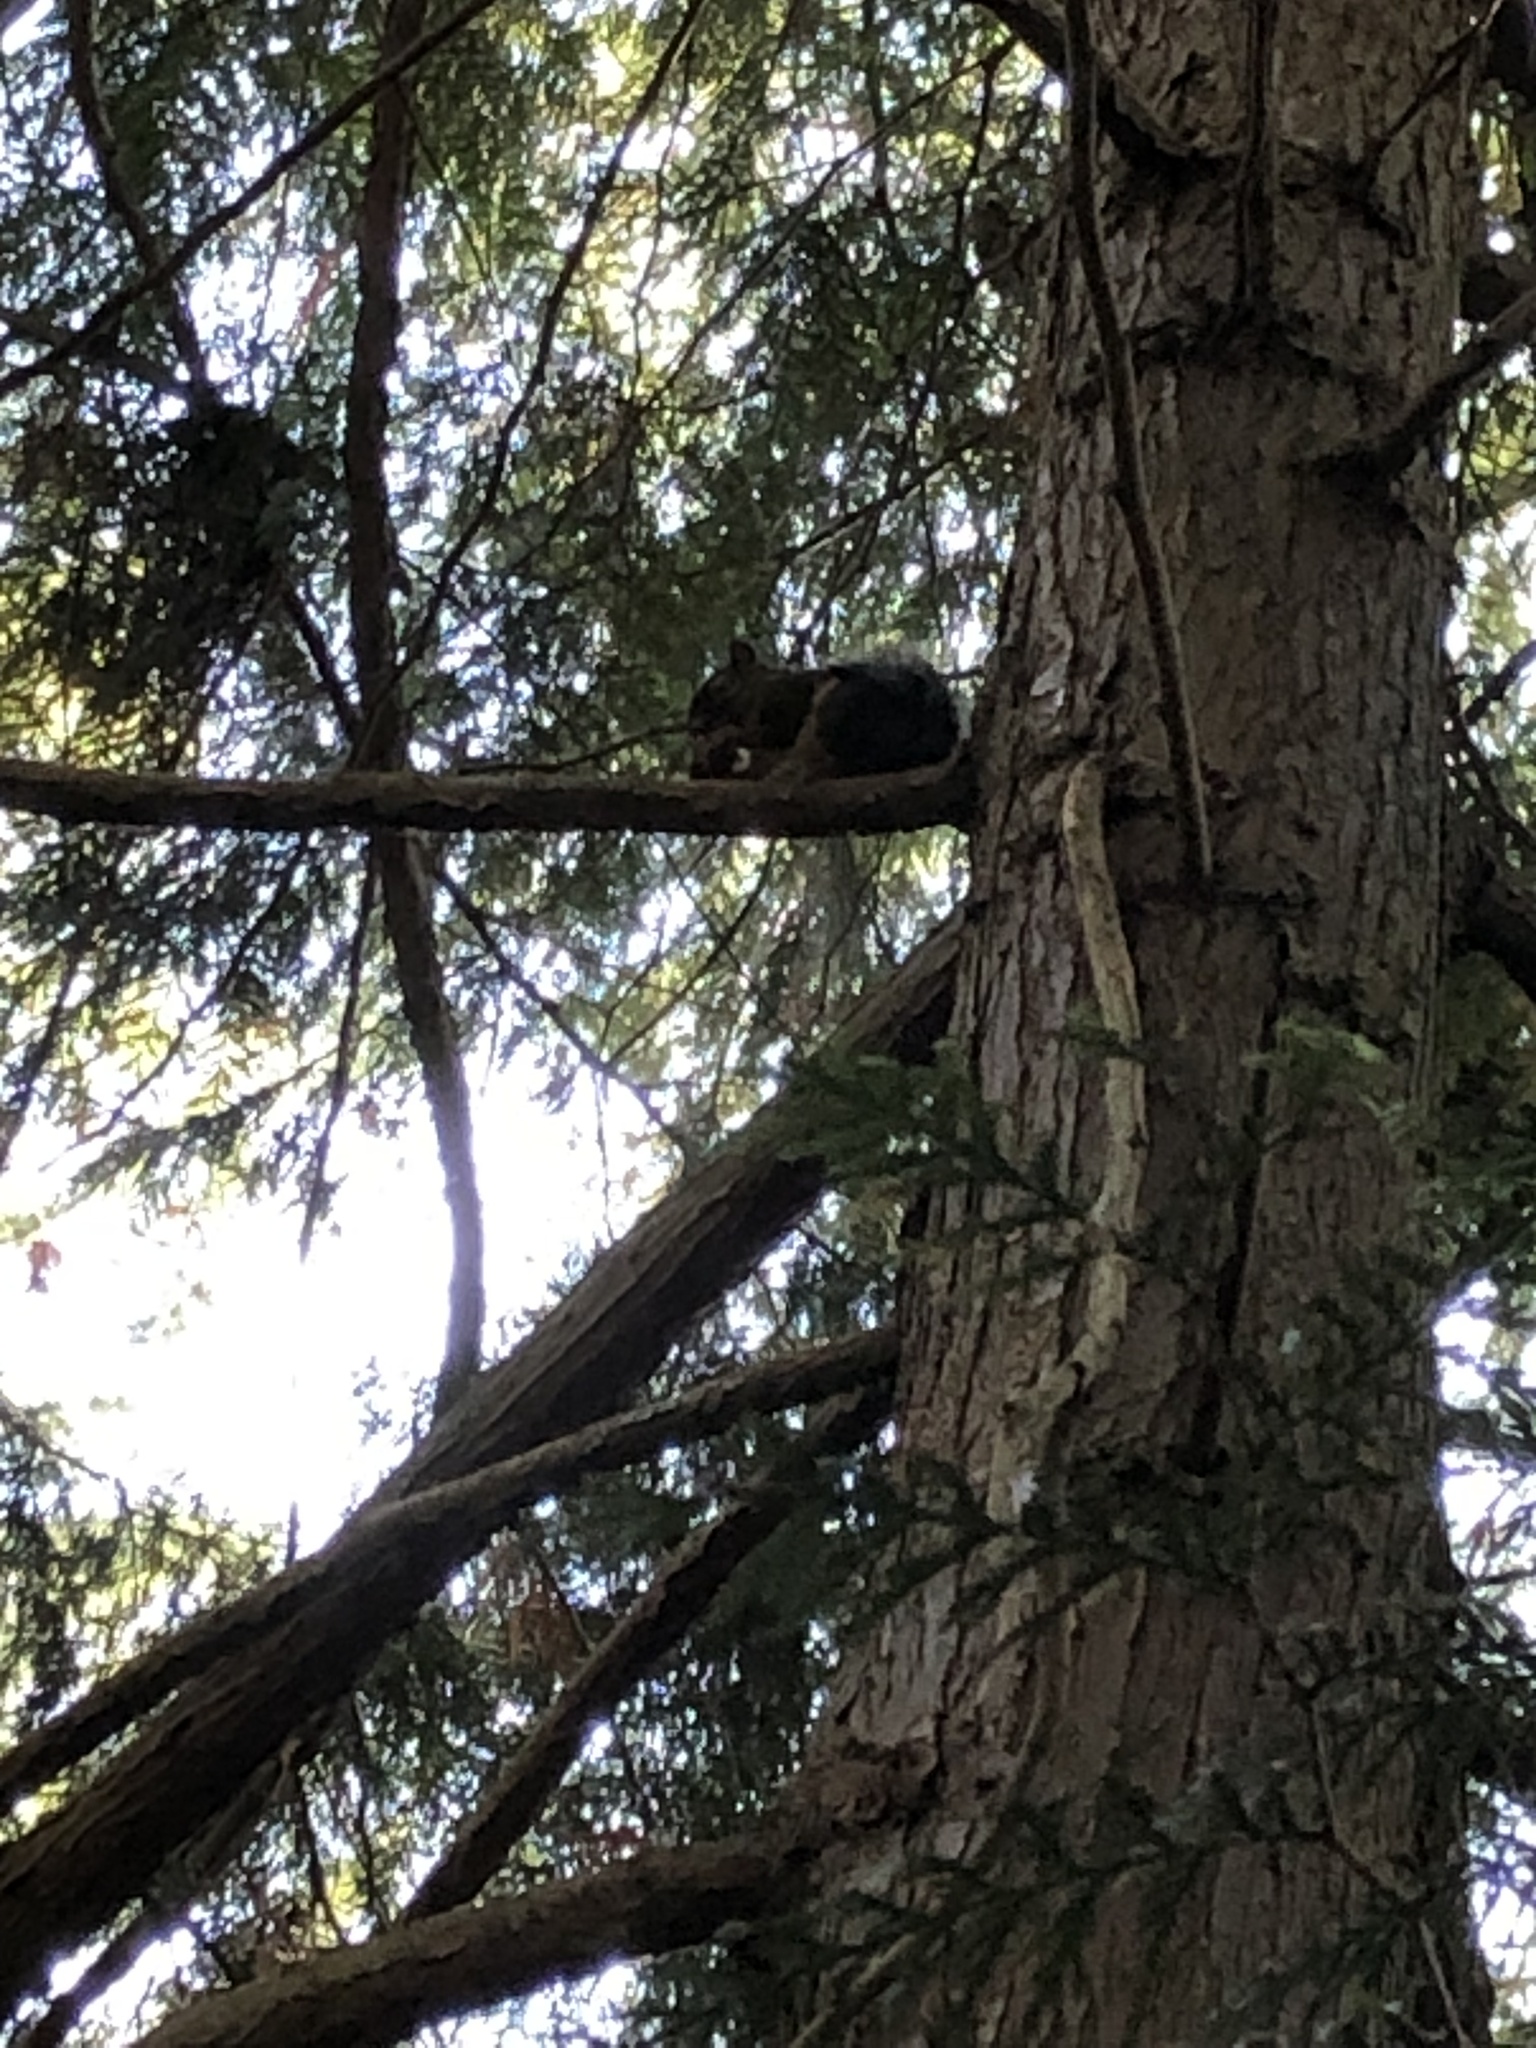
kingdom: Animalia
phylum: Chordata
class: Mammalia
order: Rodentia
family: Sciuridae
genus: Tamiasciurus
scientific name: Tamiasciurus douglasii
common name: Douglas's squirrel
